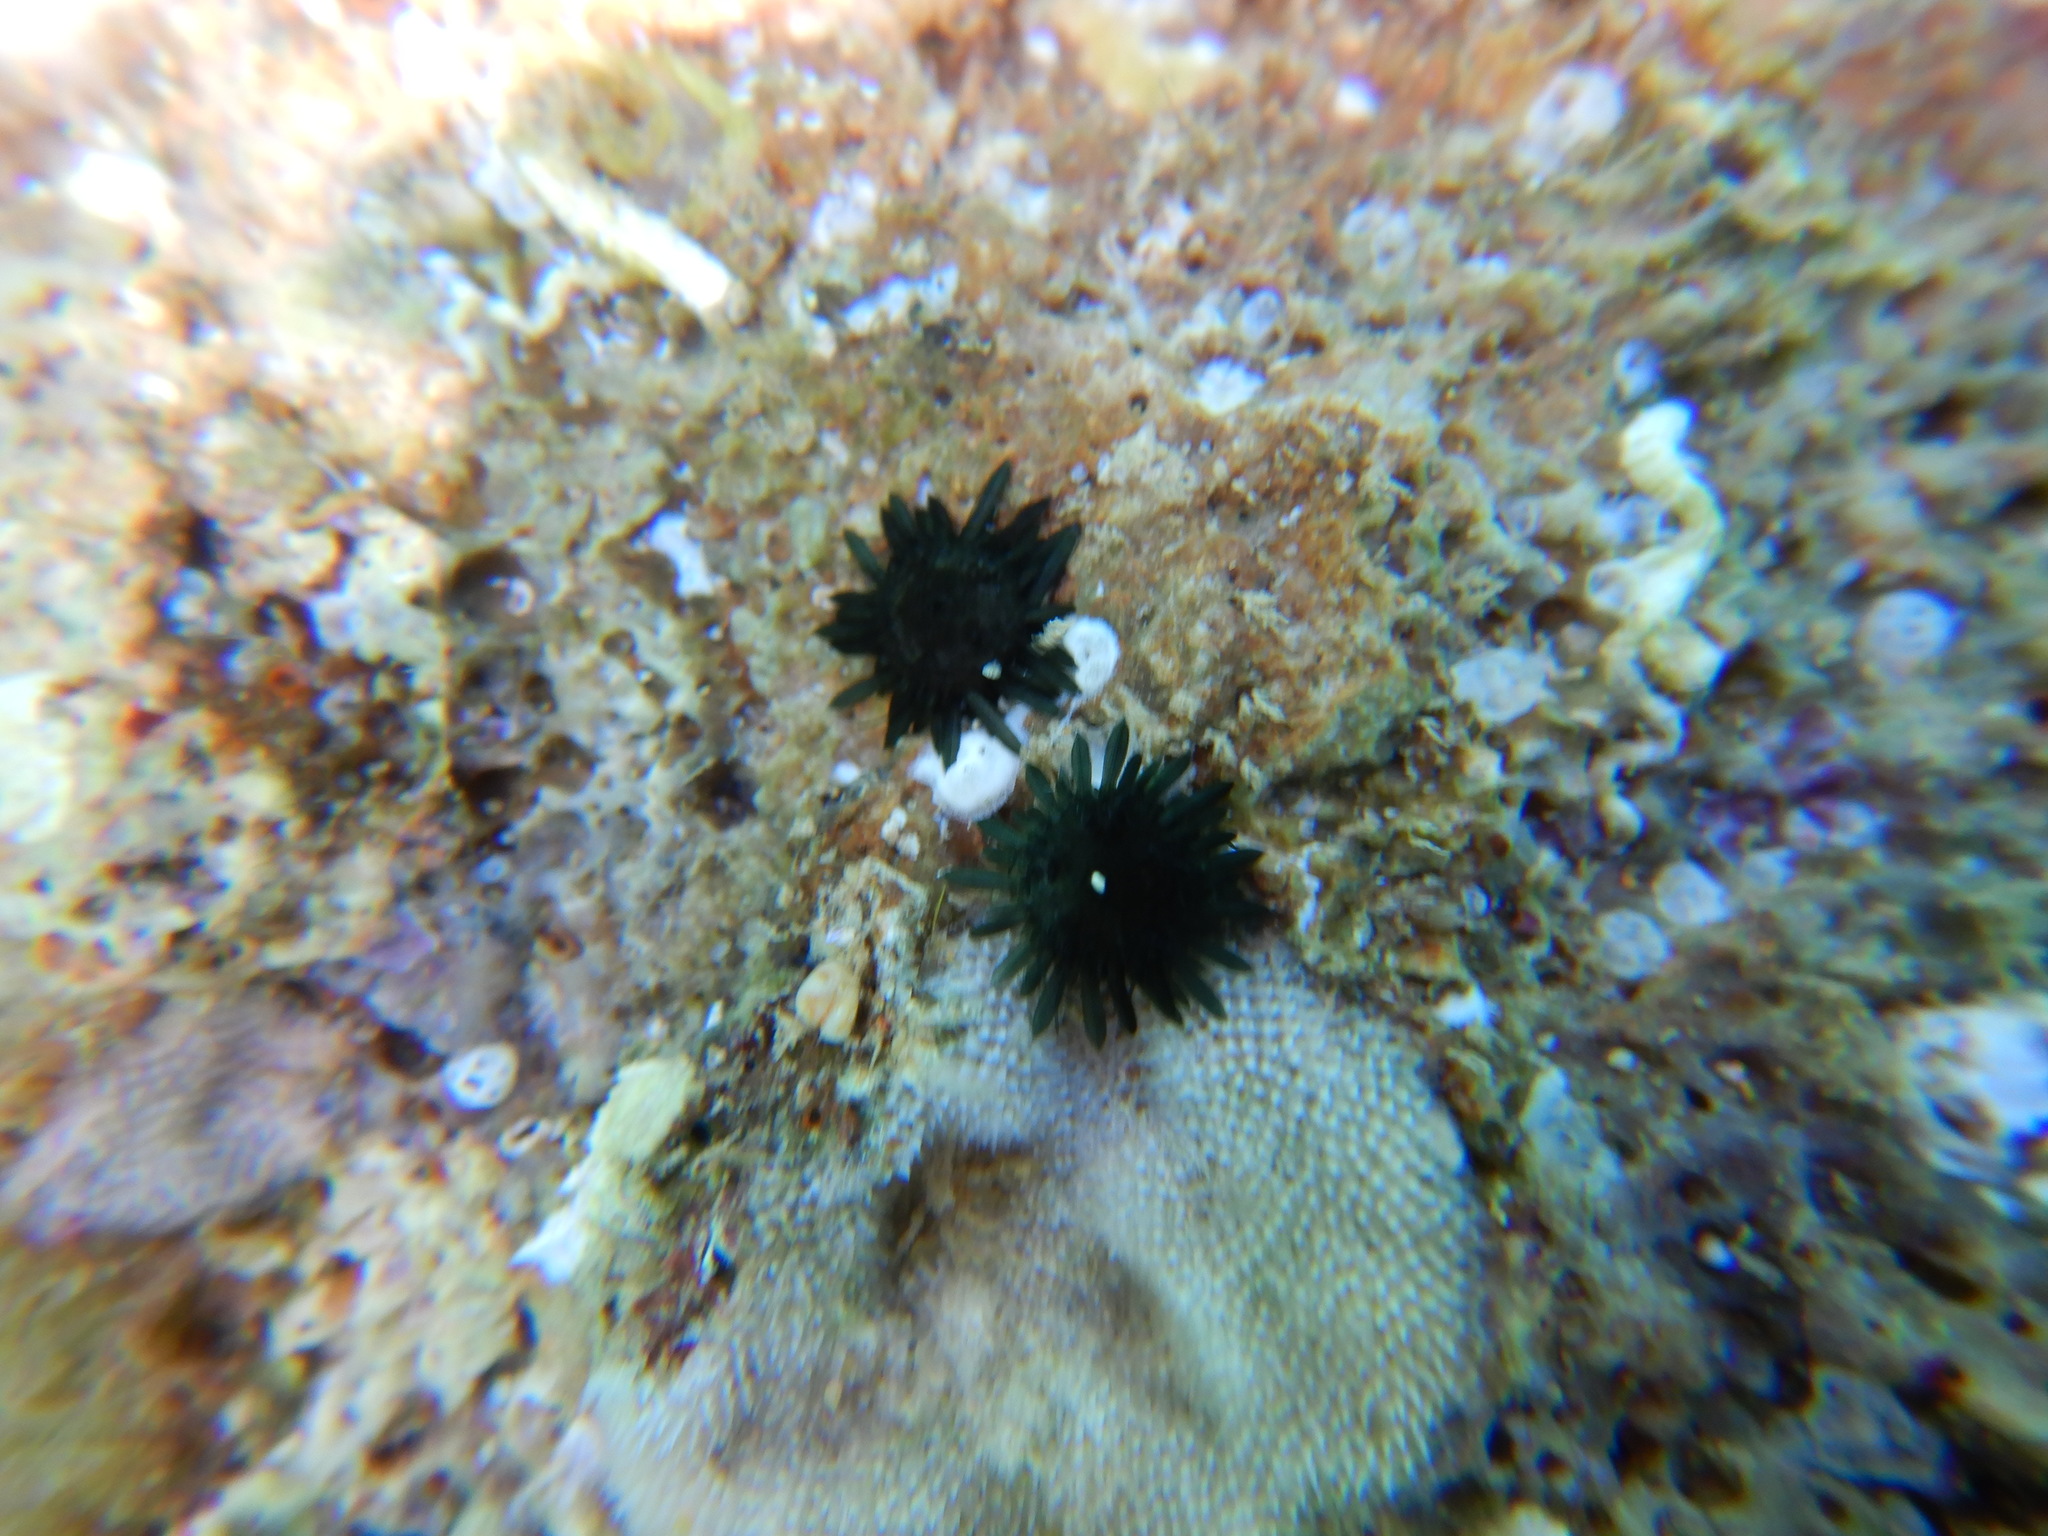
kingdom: Animalia
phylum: Echinodermata
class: Echinoidea
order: Arbacioida
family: Arbaciidae
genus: Arbacia
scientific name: Arbacia lixula
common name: Black sea urchin
